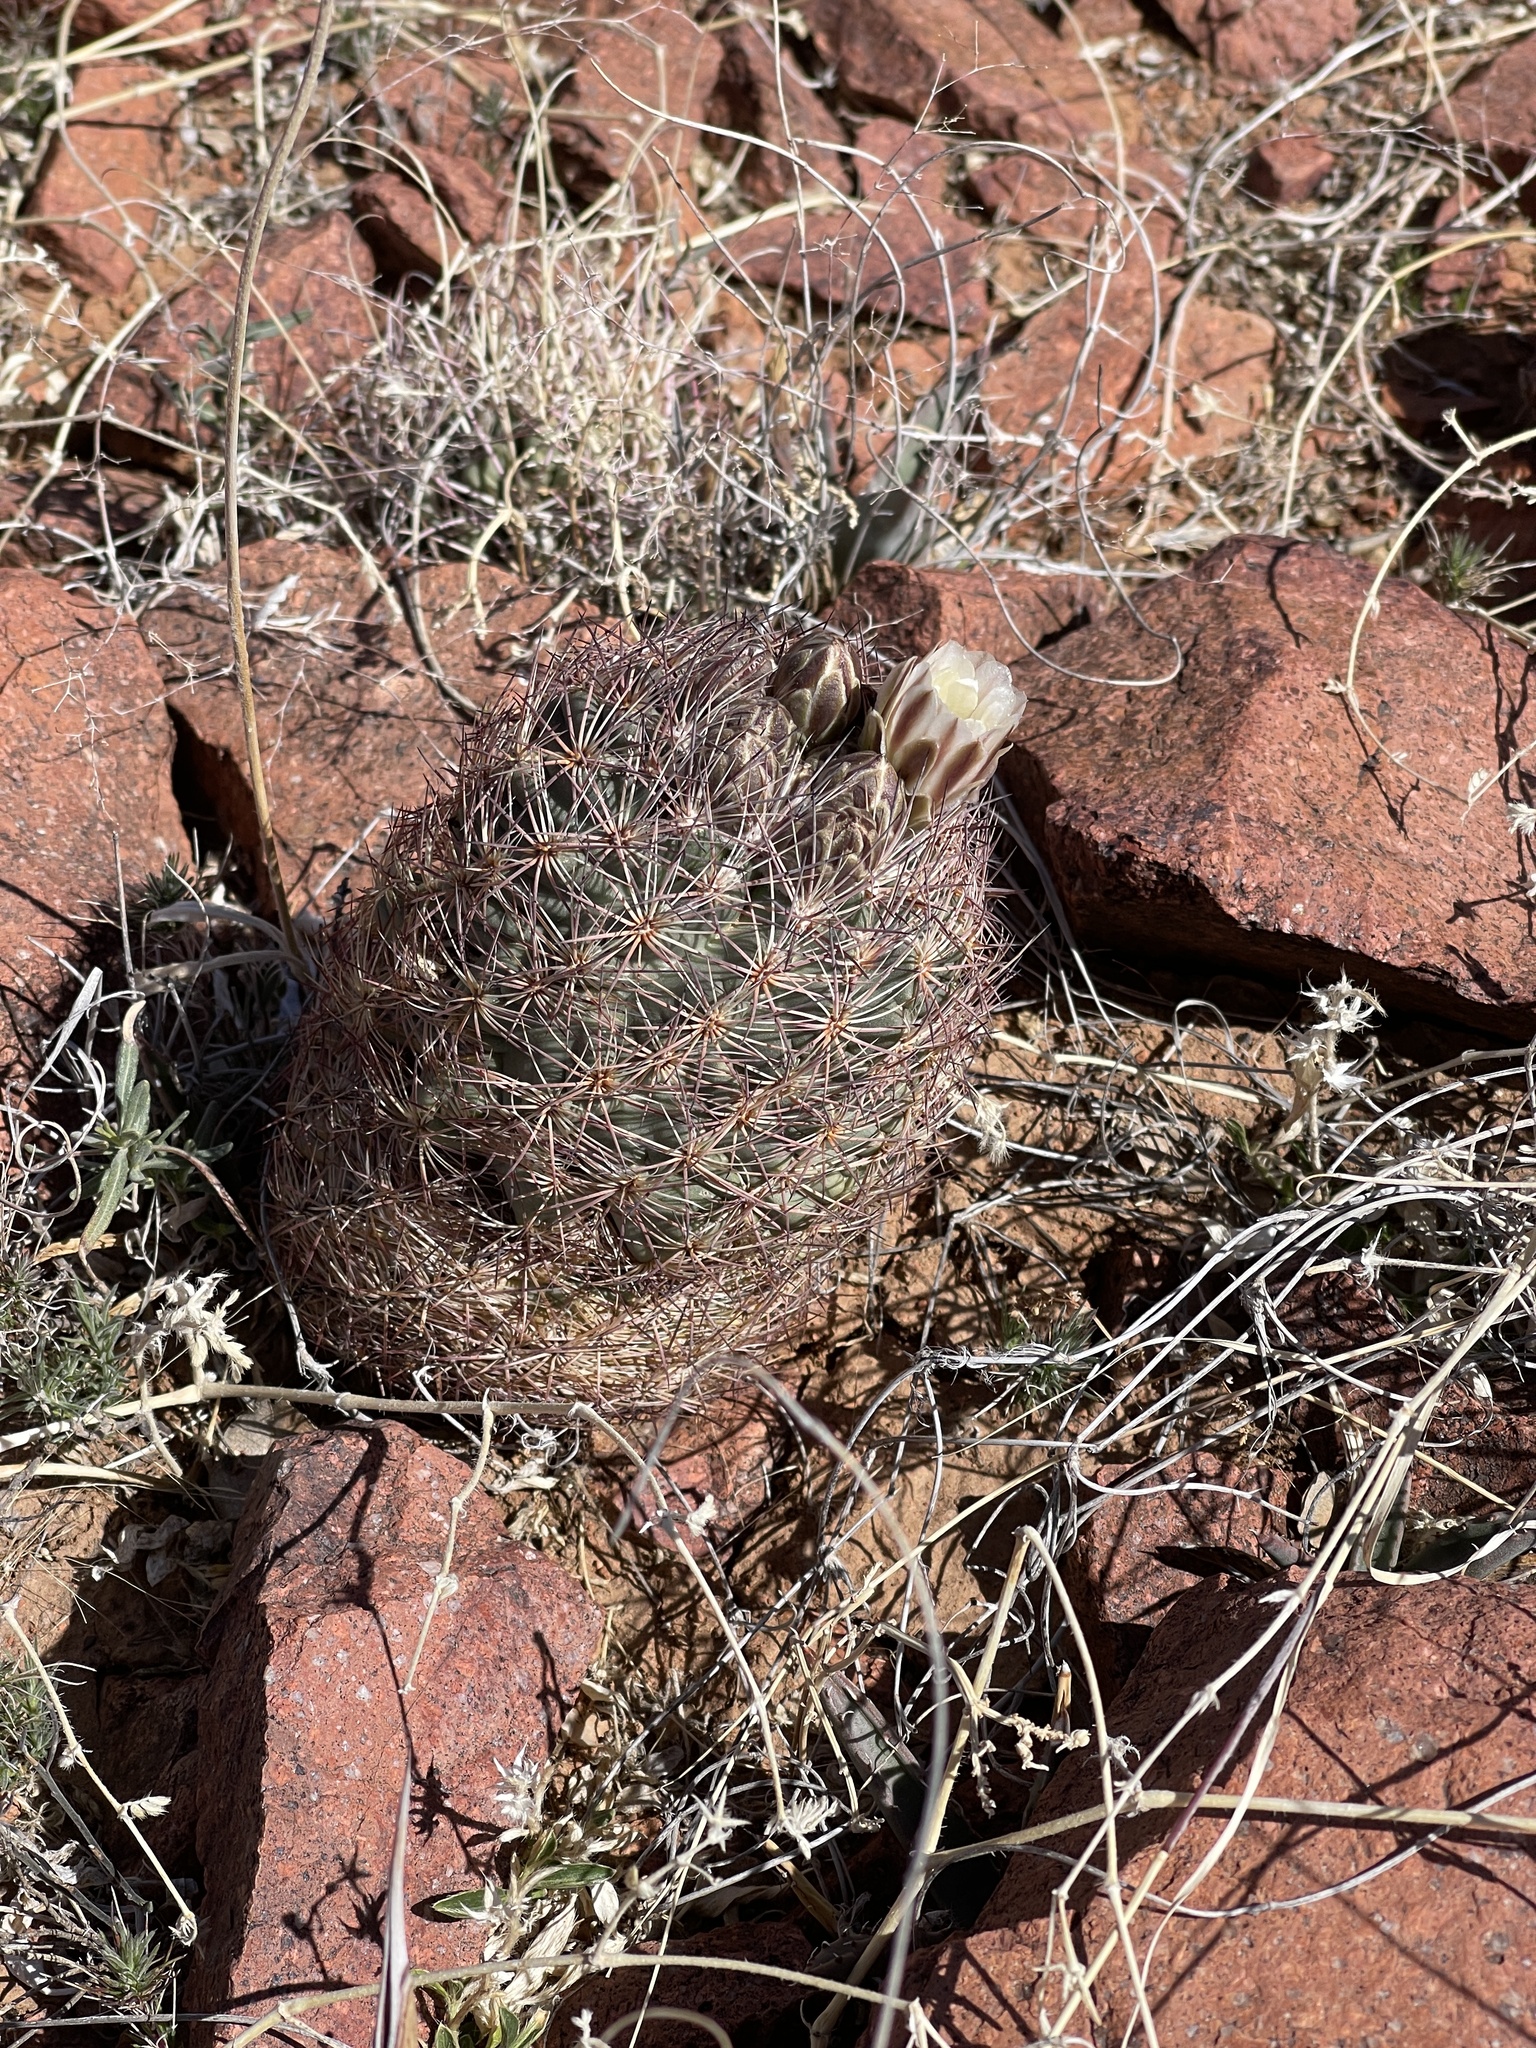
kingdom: Plantae
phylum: Tracheophyta
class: Magnoliopsida
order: Caryophyllales
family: Cactaceae
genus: Sclerocactus
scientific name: Sclerocactus intertextus
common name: White fish-hook cactus
